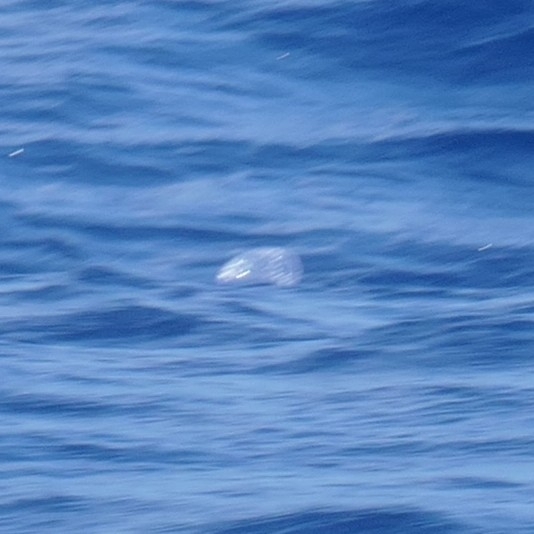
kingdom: Animalia
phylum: Cnidaria
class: Hydrozoa
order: Siphonophorae
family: Physaliidae
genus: Physalia
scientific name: Physalia physalis
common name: Portuguese man-of-war
